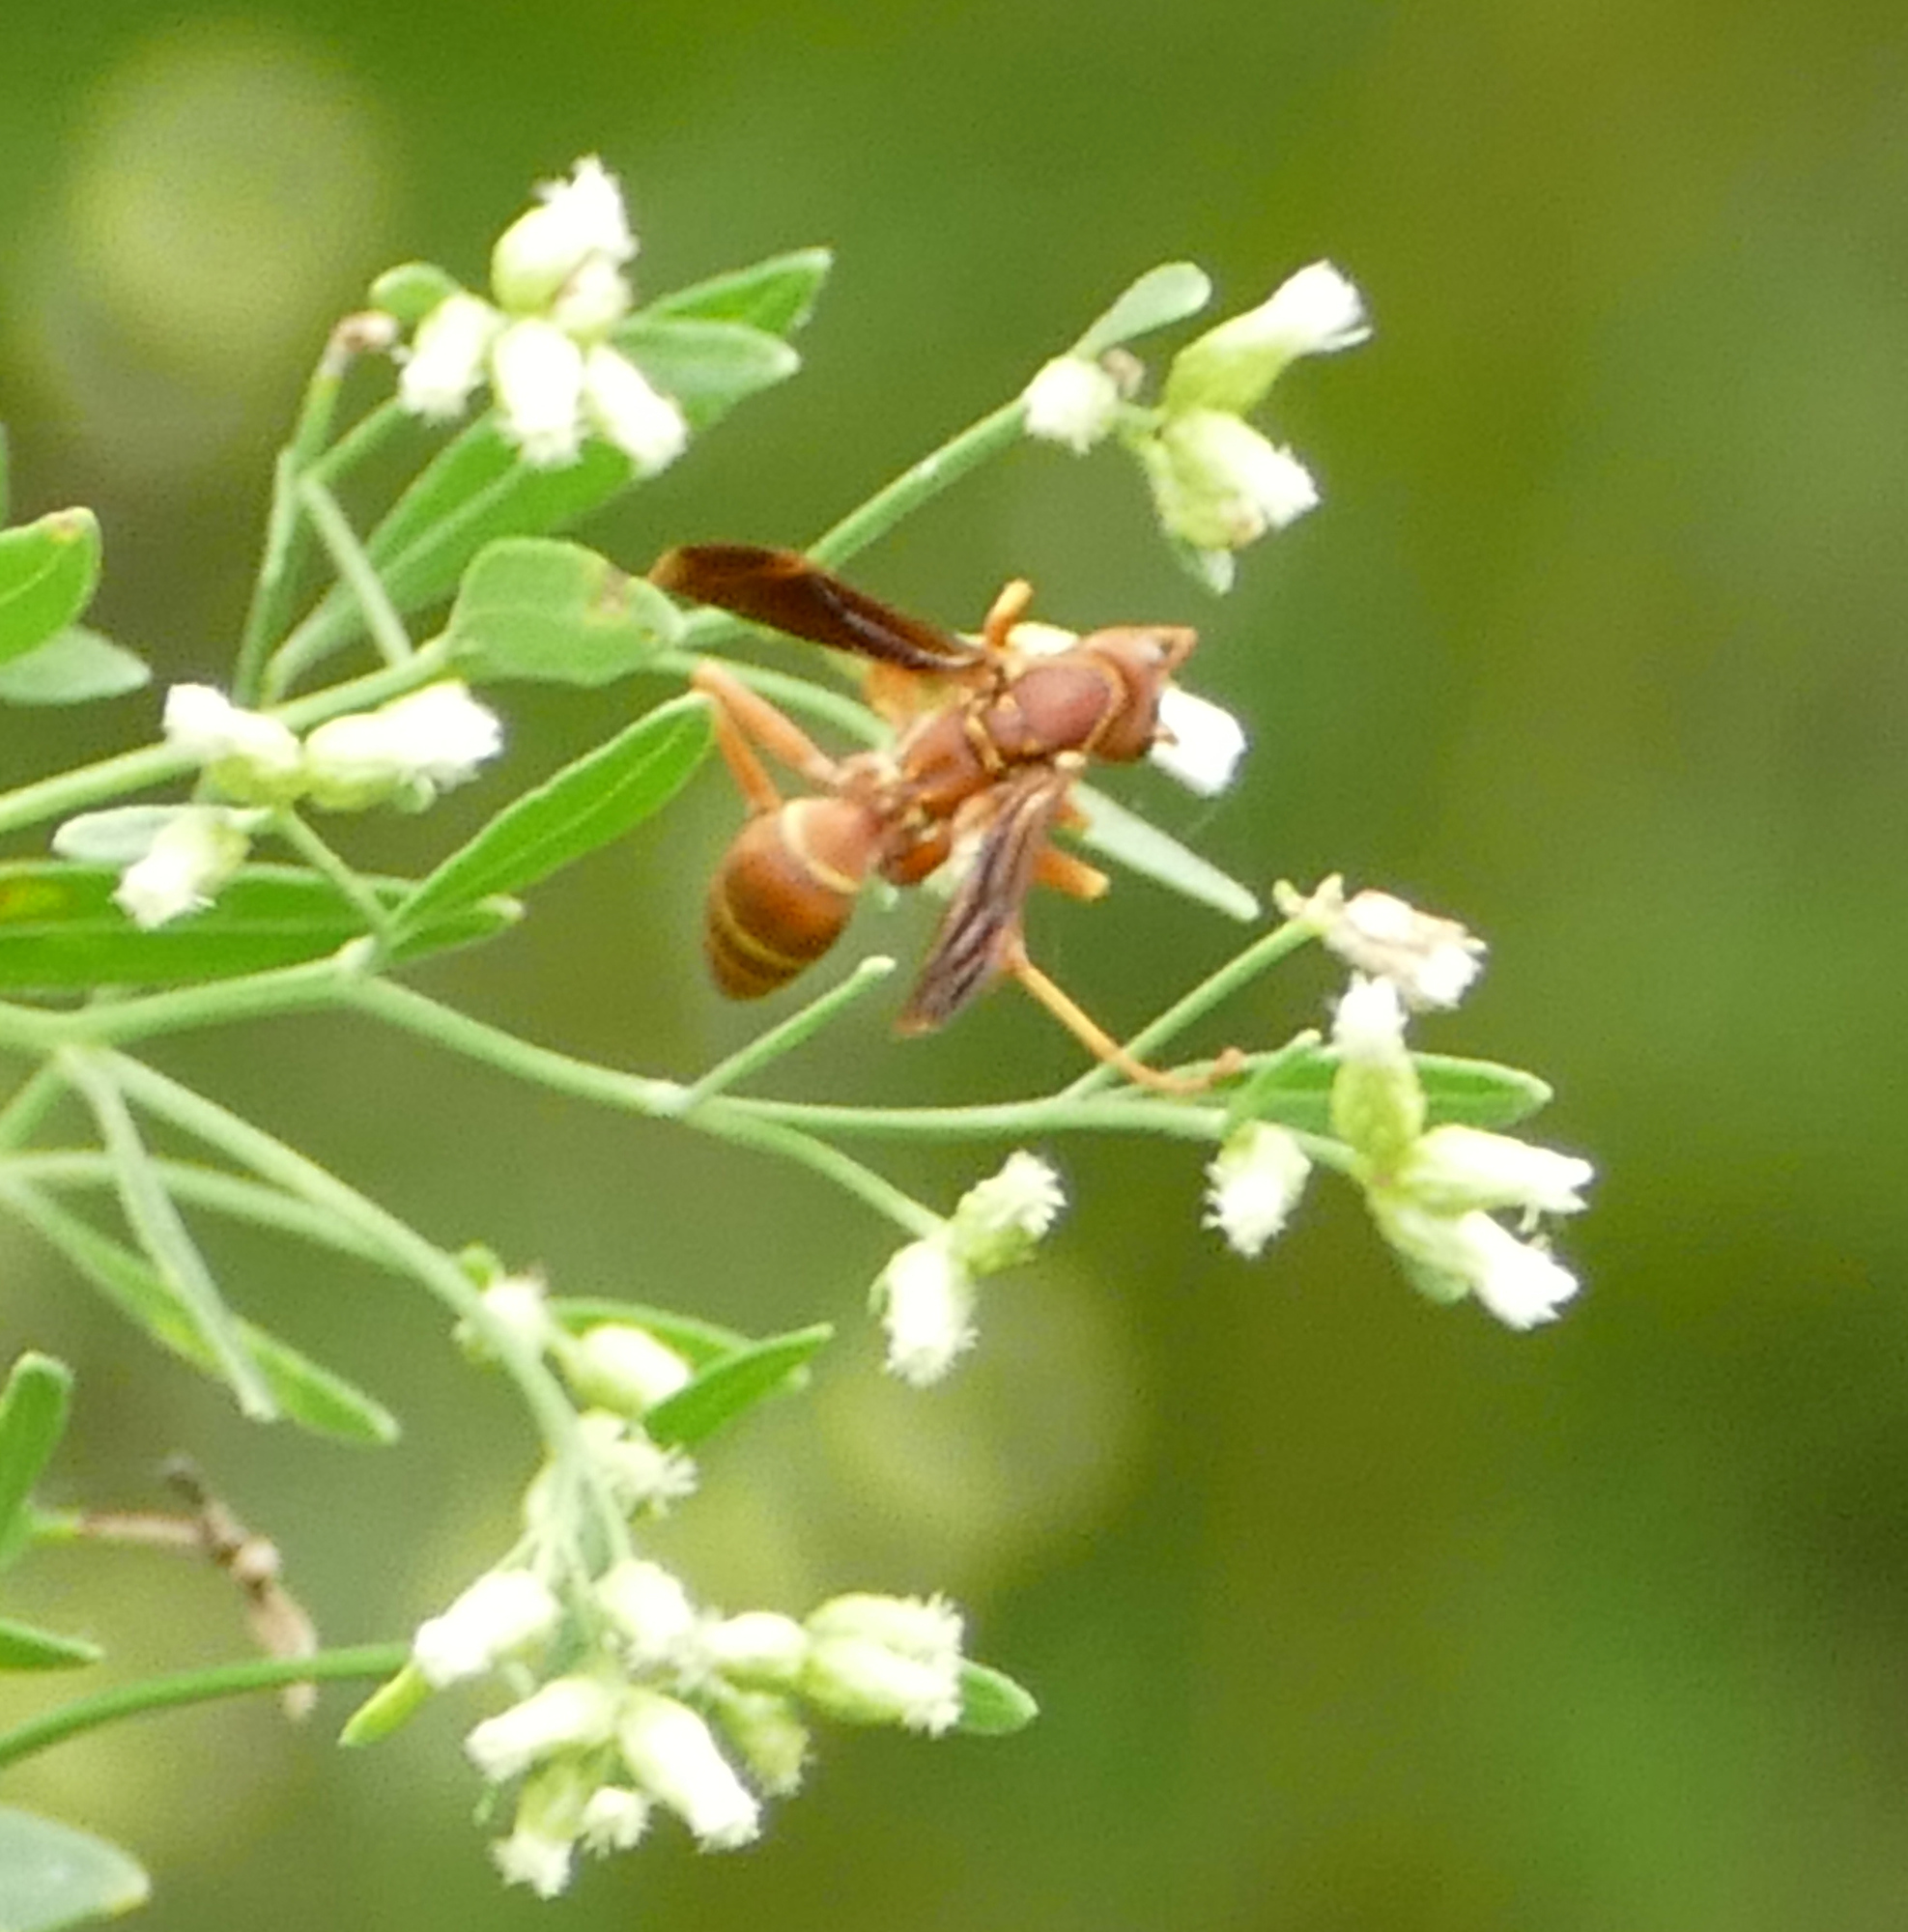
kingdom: Animalia
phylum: Arthropoda
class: Insecta
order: Hymenoptera
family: Eumenidae
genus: Polistes
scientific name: Polistes bellicosus
